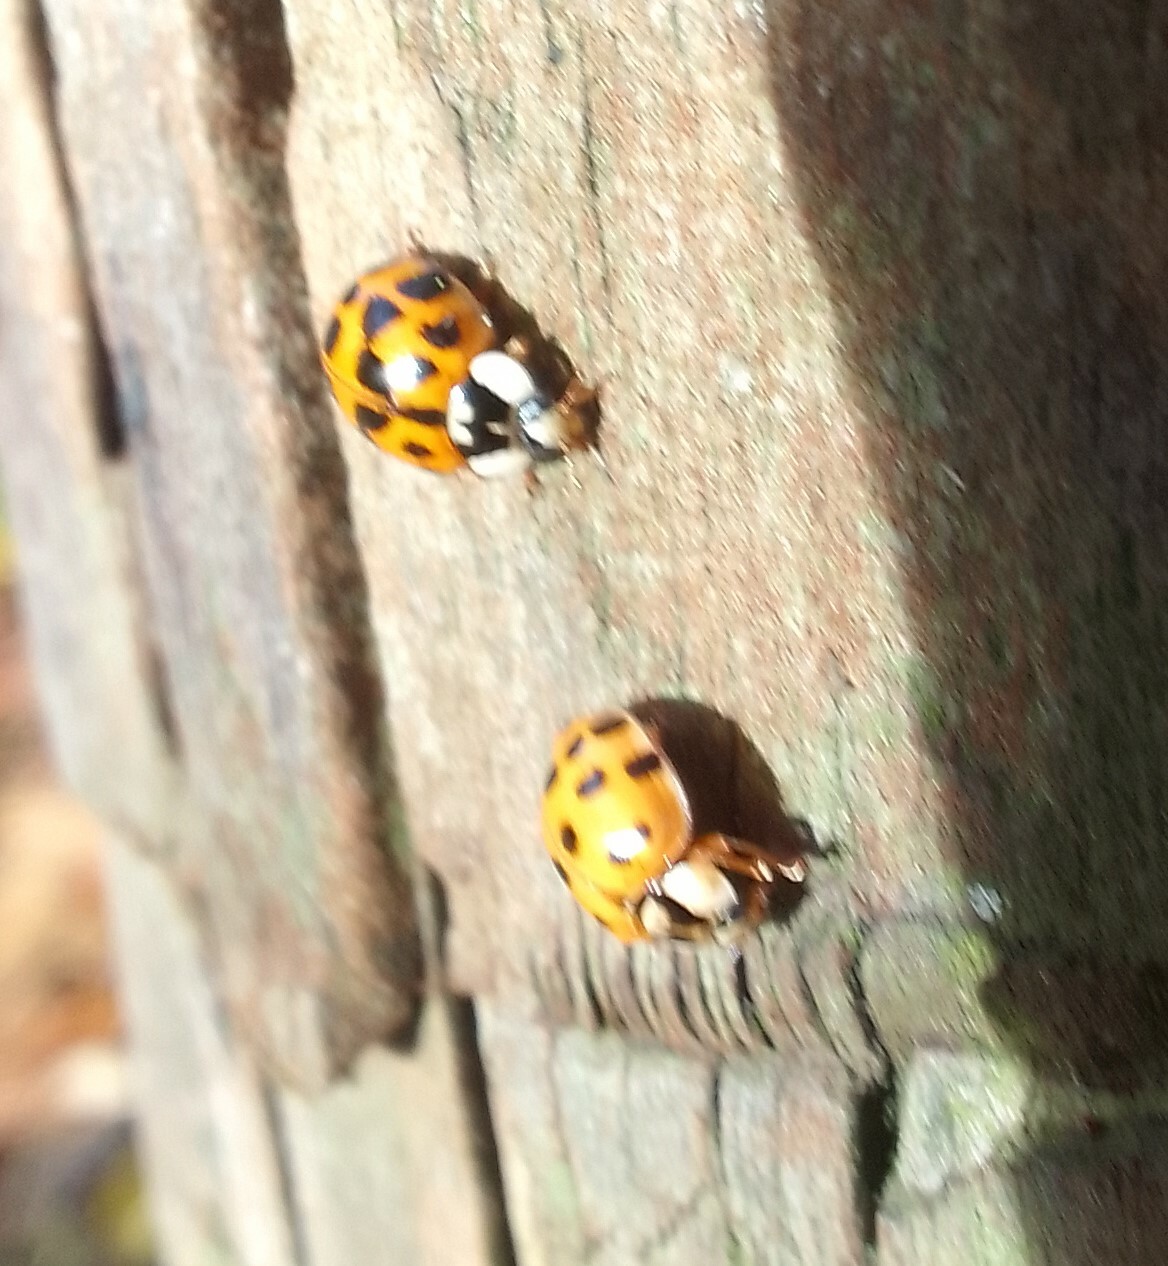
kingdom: Animalia
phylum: Arthropoda
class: Insecta
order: Coleoptera
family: Coccinellidae
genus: Harmonia
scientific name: Harmonia axyridis
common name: Harlequin ladybird
